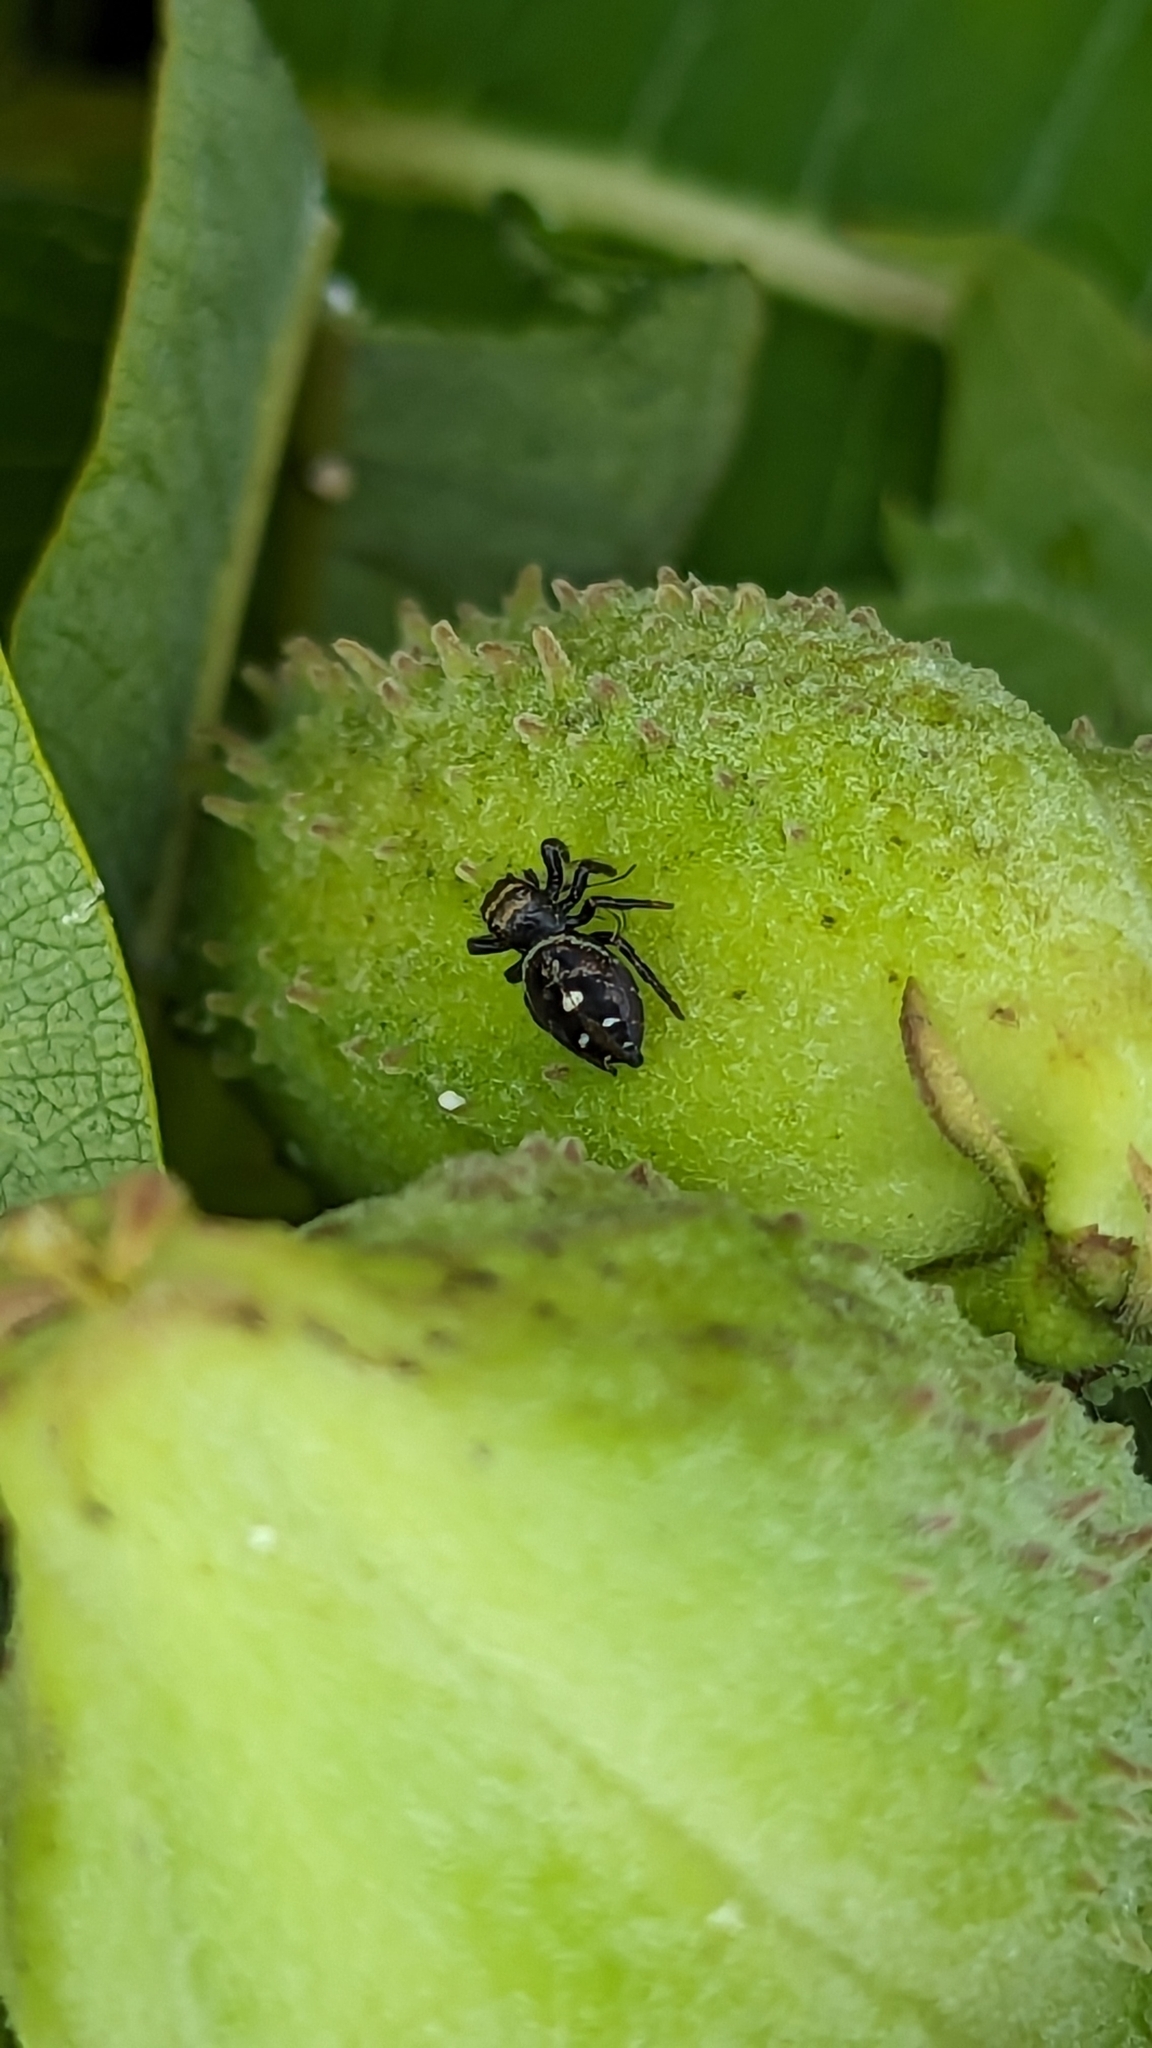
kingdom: Animalia
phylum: Arthropoda
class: Arachnida
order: Araneae
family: Salticidae
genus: Phidippus
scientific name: Phidippus audax
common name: Bold jumper
